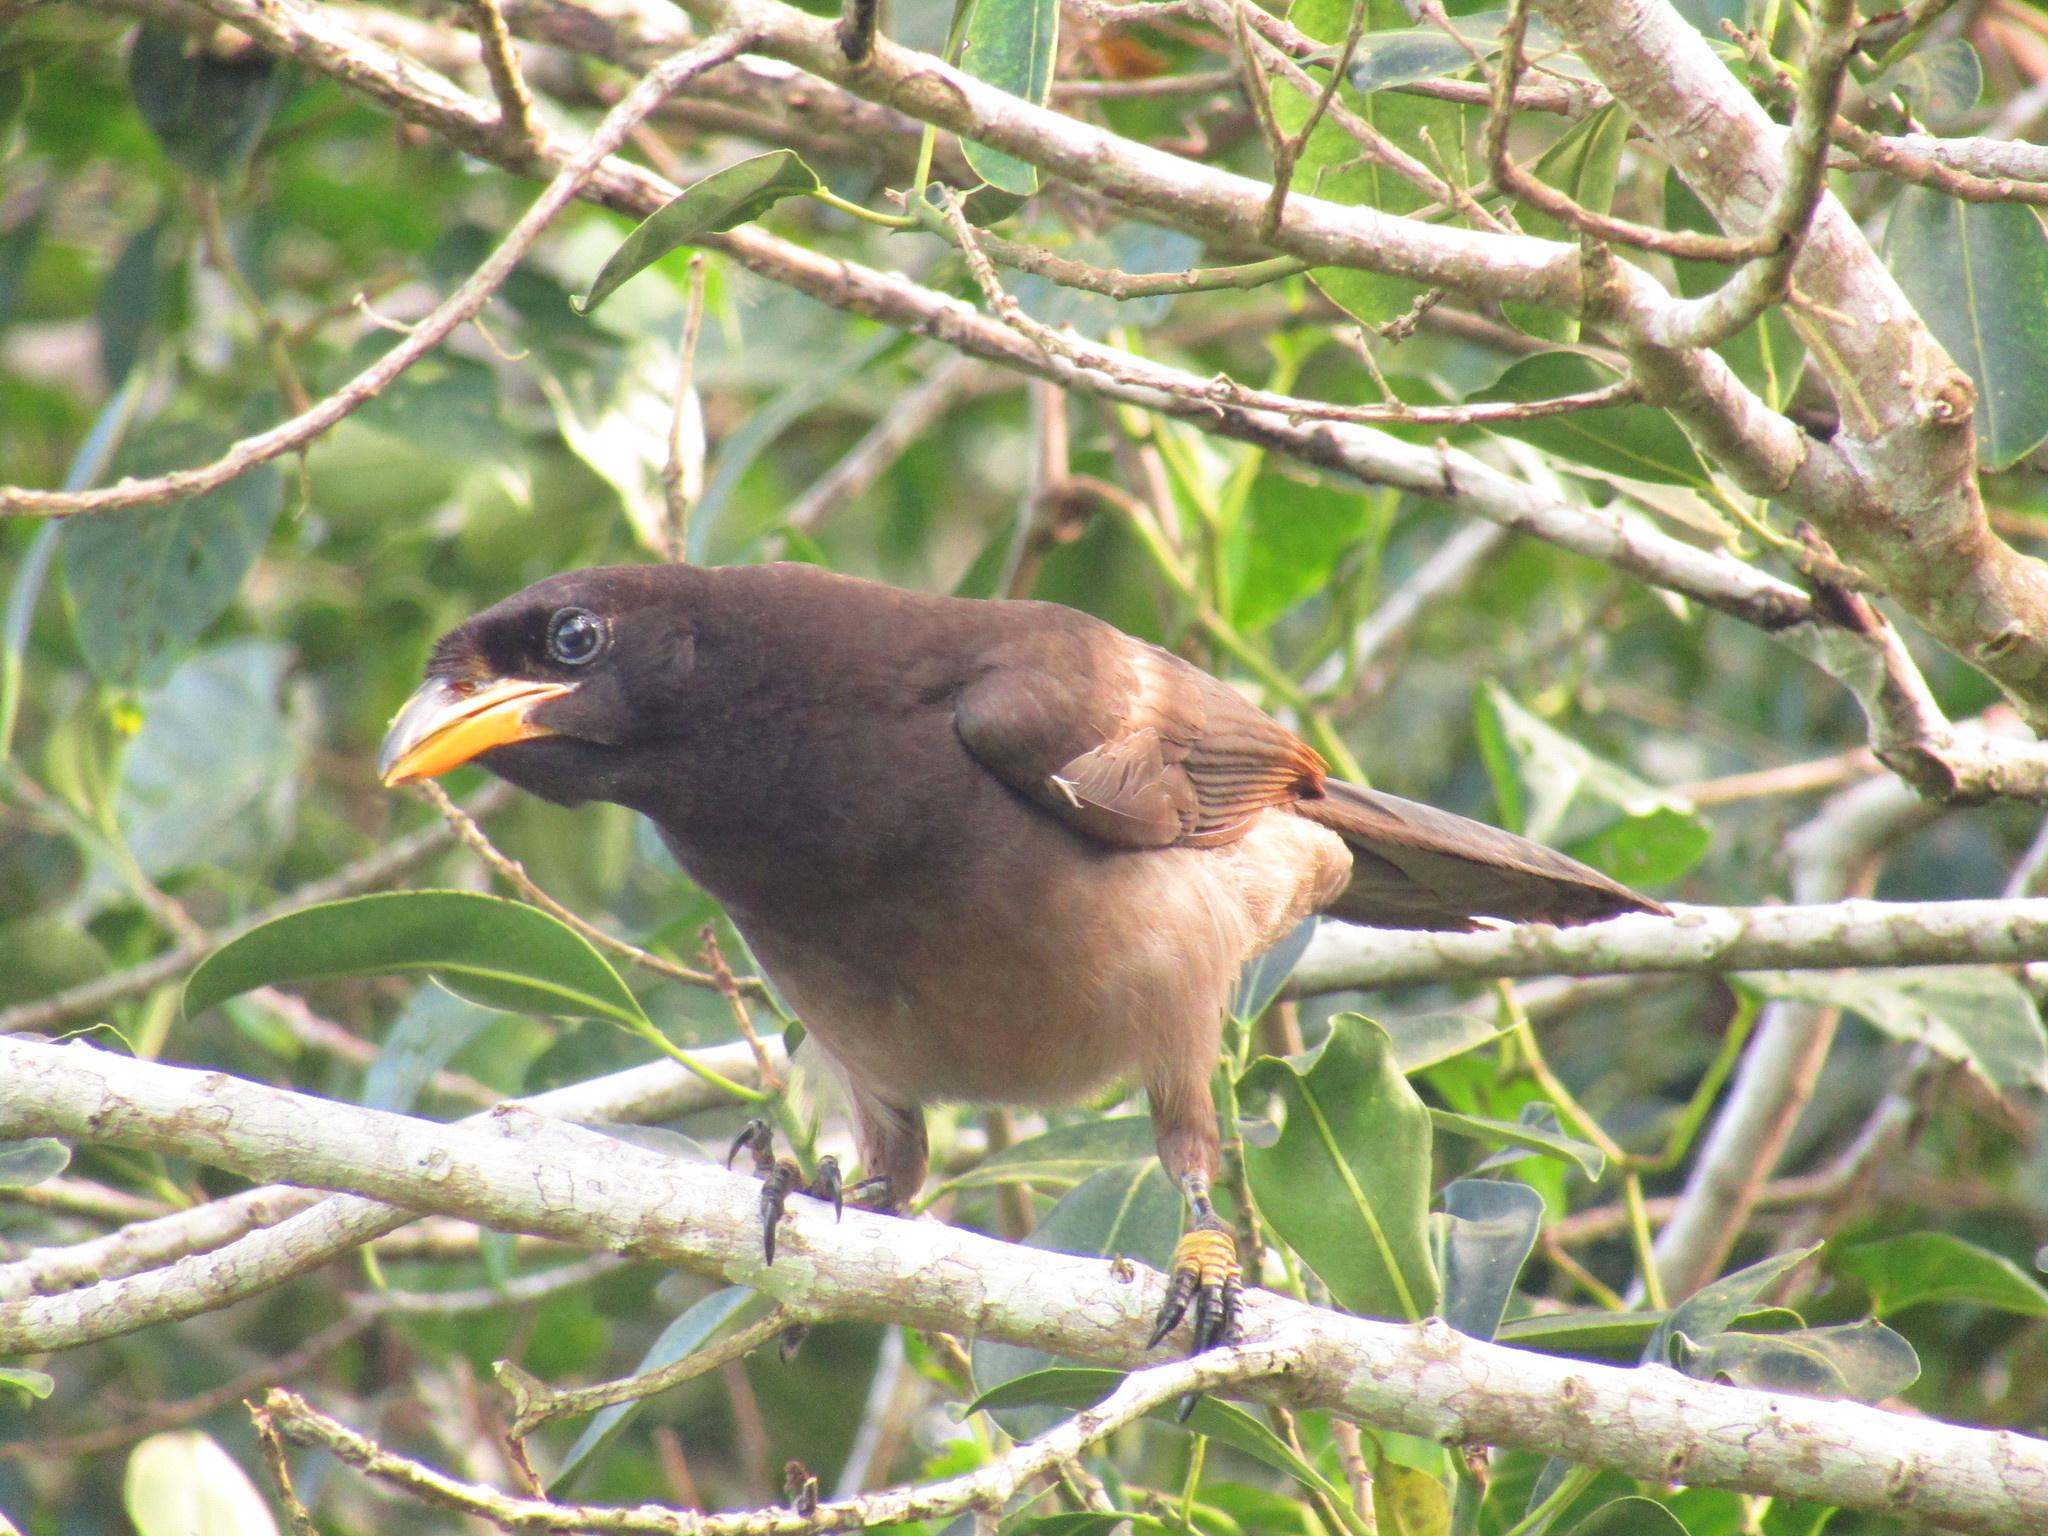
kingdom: Animalia
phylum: Chordata
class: Aves
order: Passeriformes
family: Corvidae
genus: Psilorhinus
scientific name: Psilorhinus morio
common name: Brown jay
